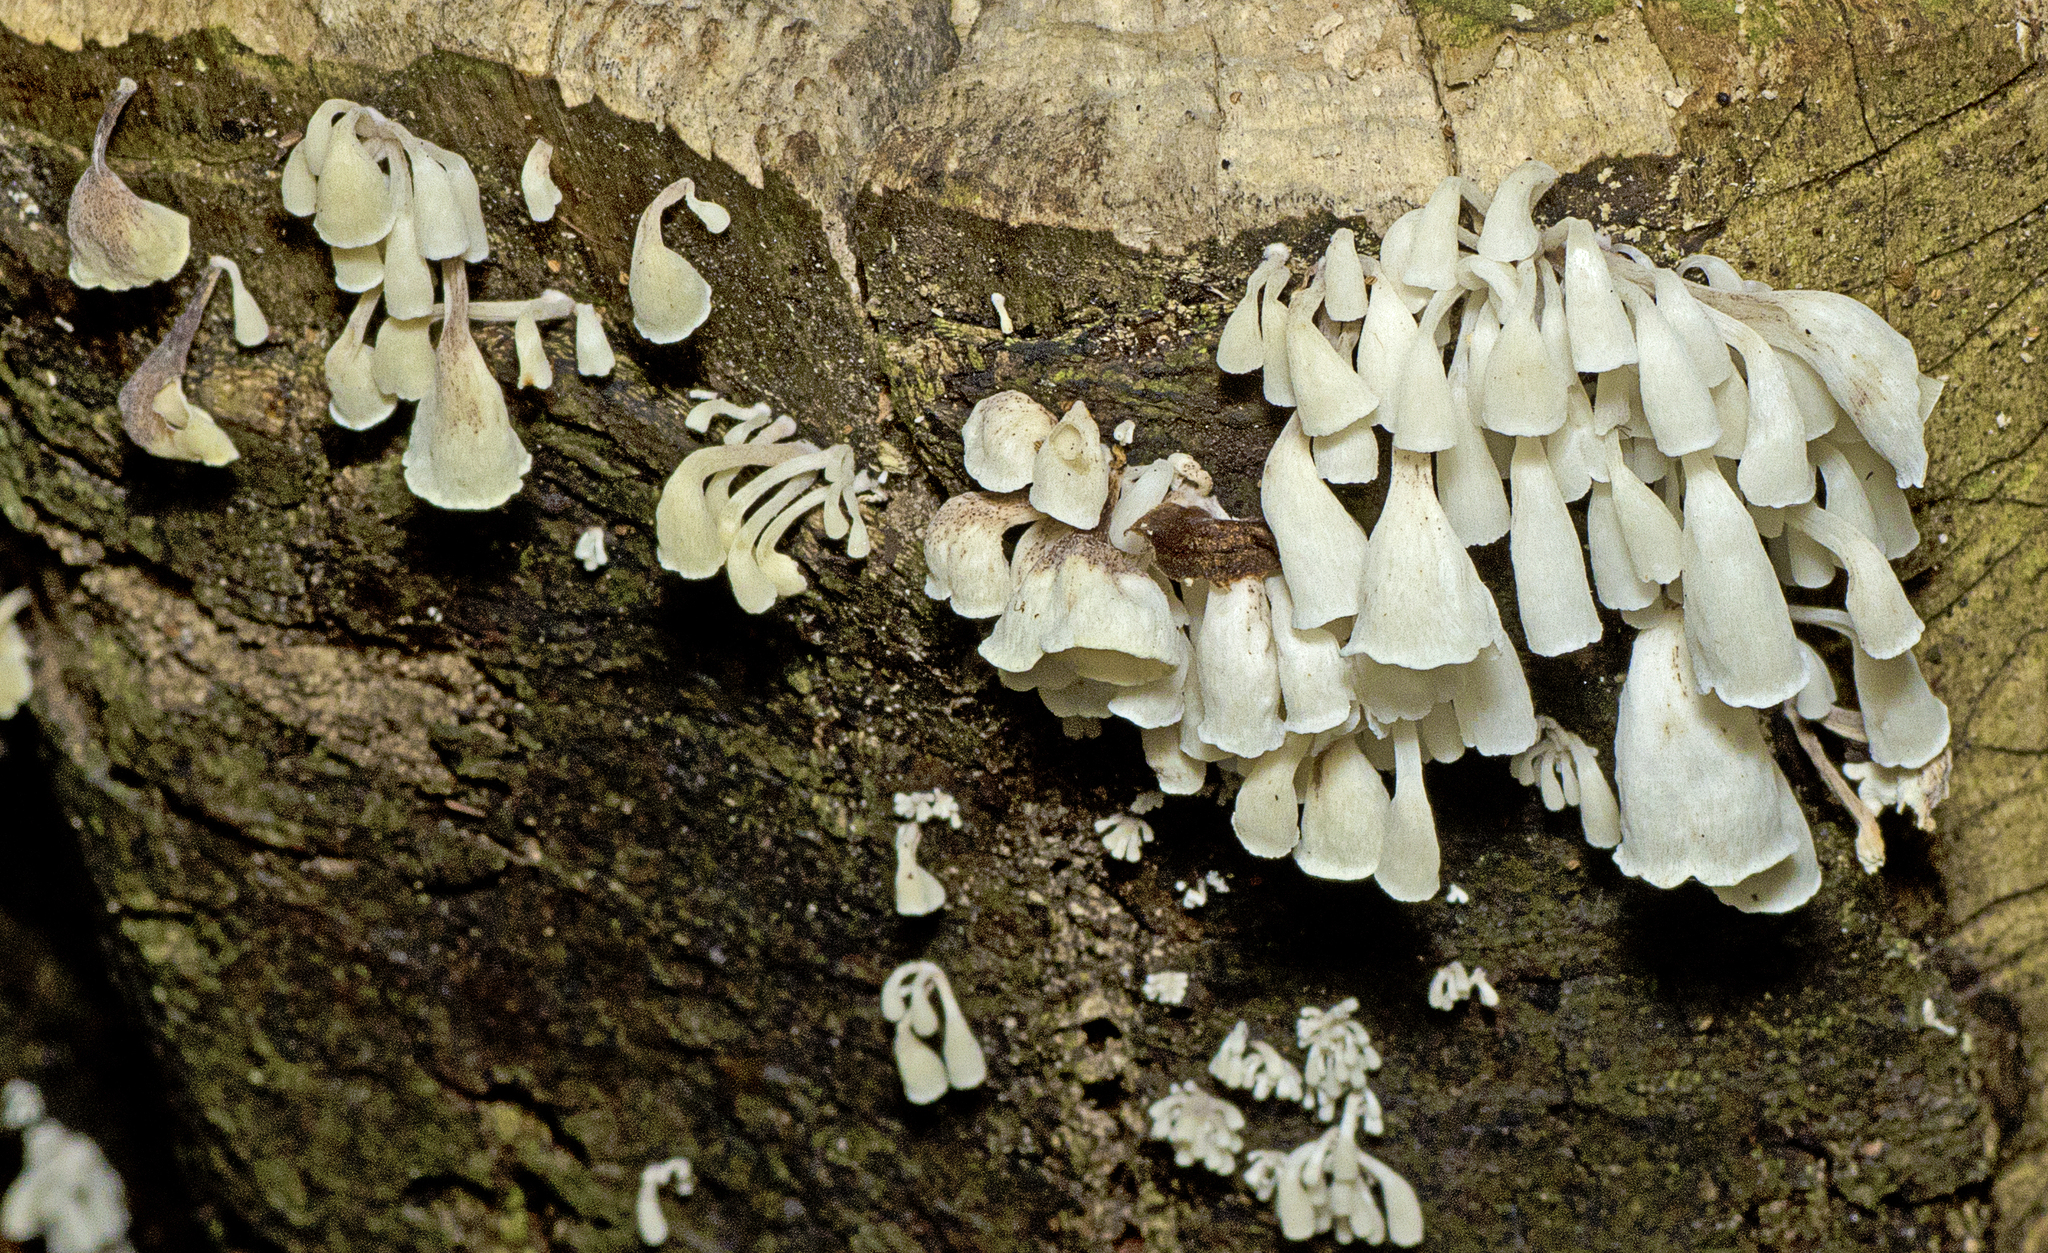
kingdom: Fungi
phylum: Basidiomycota
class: Agaricomycetes
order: Agaricales
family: Marasmiaceae
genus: Calyptella
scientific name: Calyptella longipes
